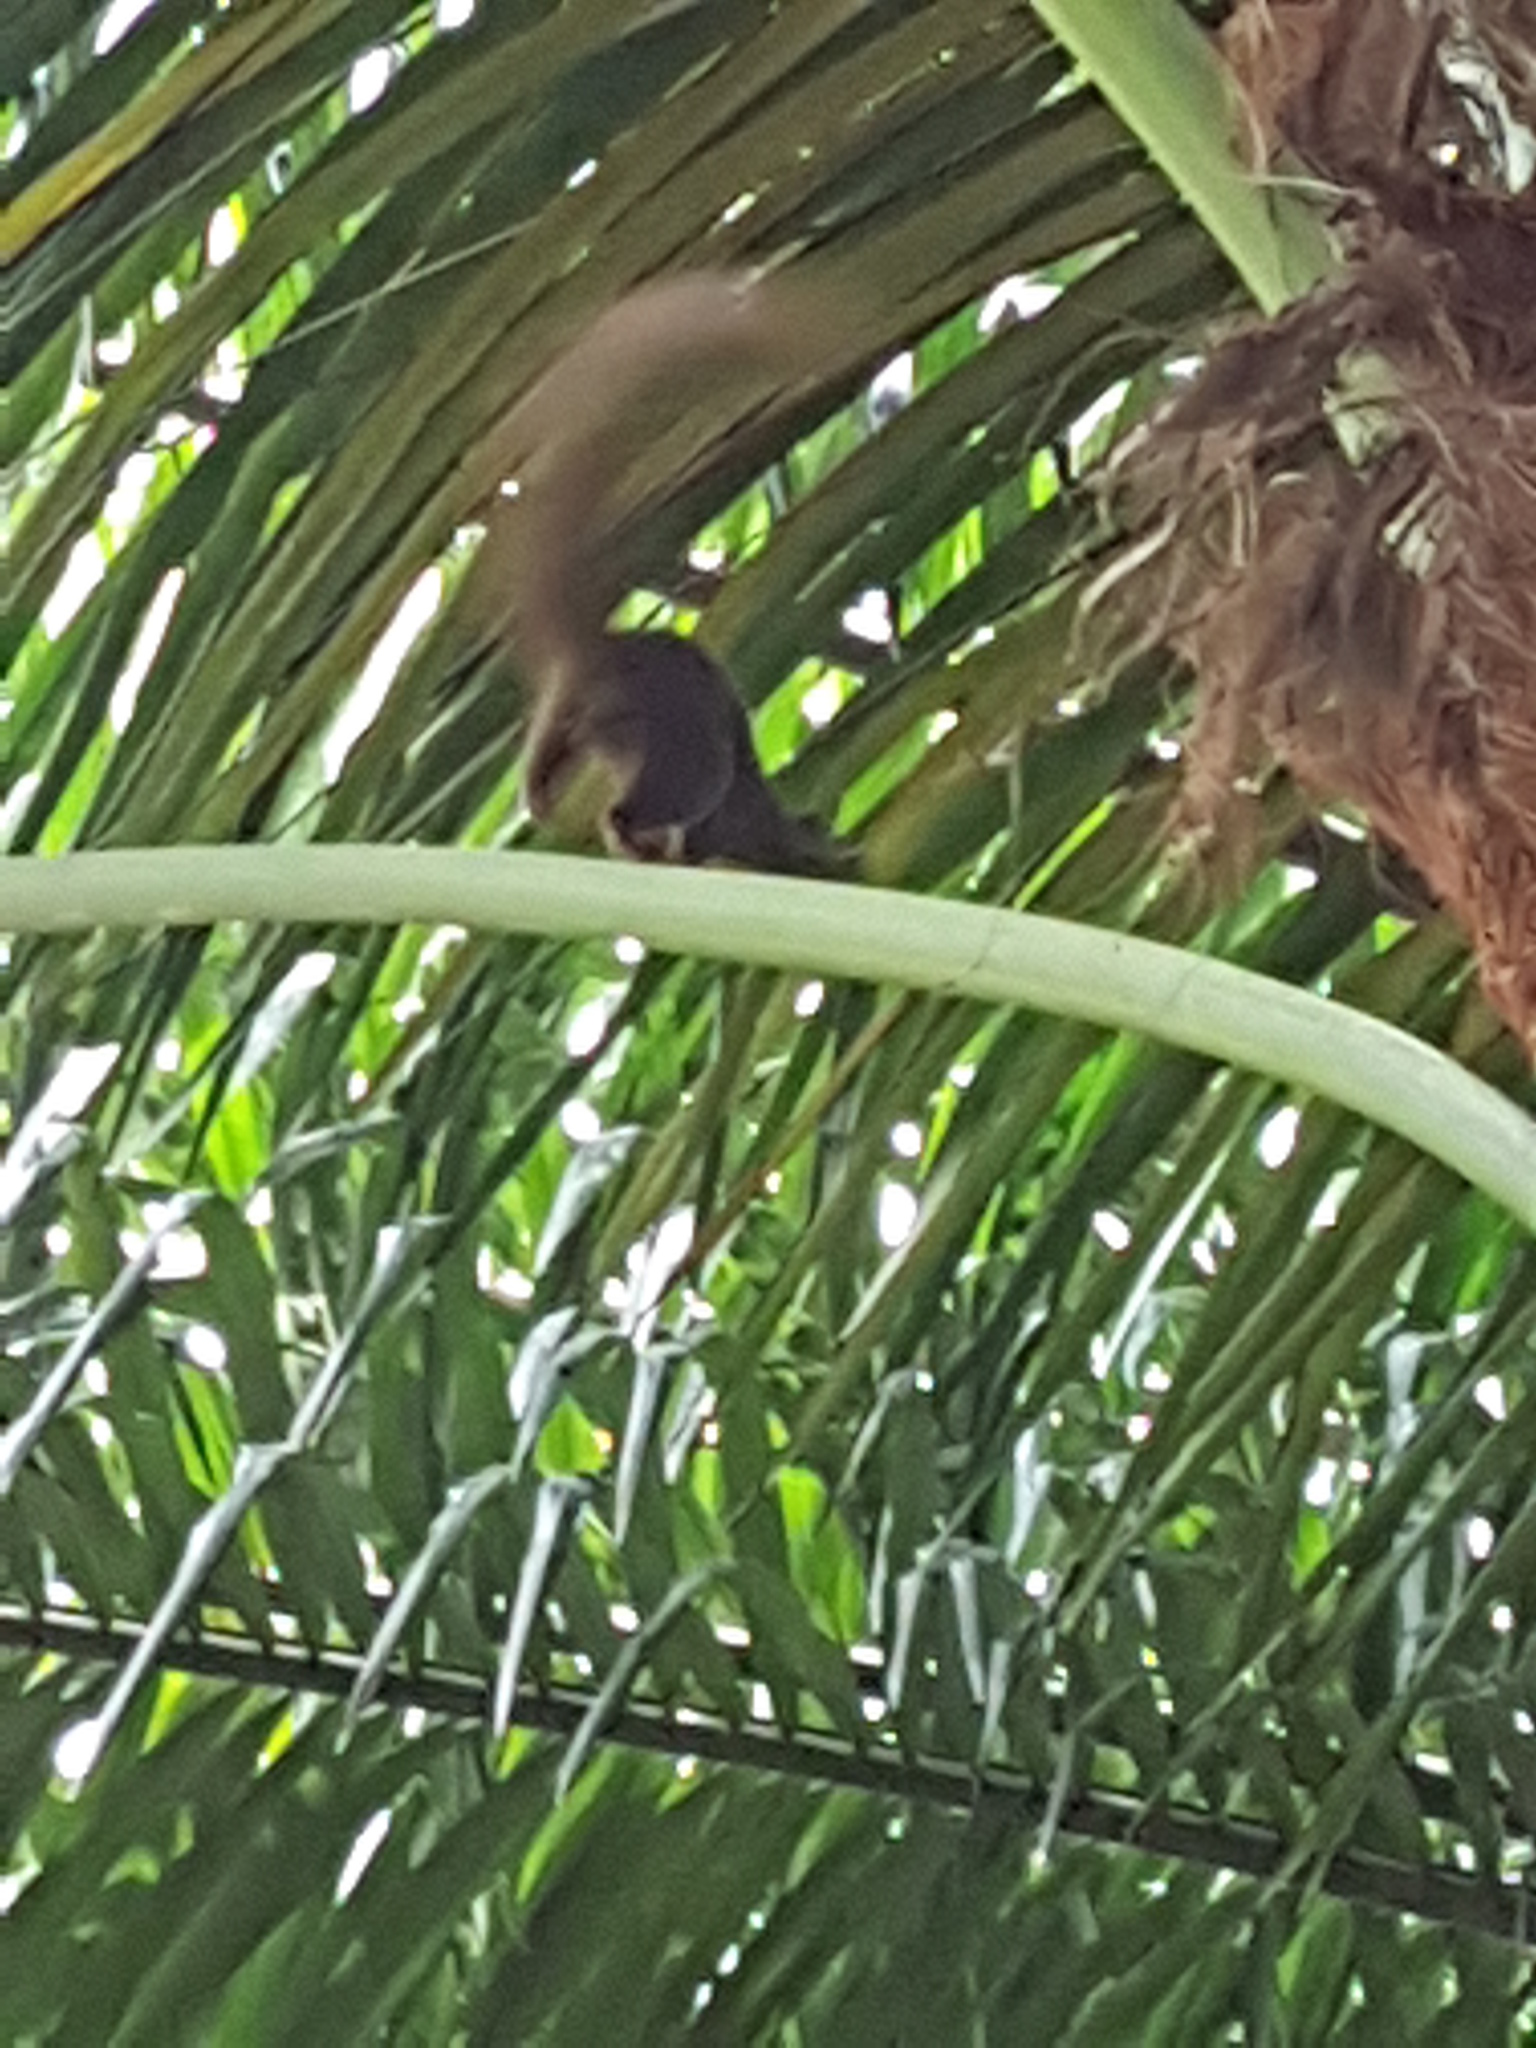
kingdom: Animalia
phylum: Chordata
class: Mammalia
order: Rodentia
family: Sciuridae
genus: Callosciurus
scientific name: Callosciurus notatus
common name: Plantain squirrel
